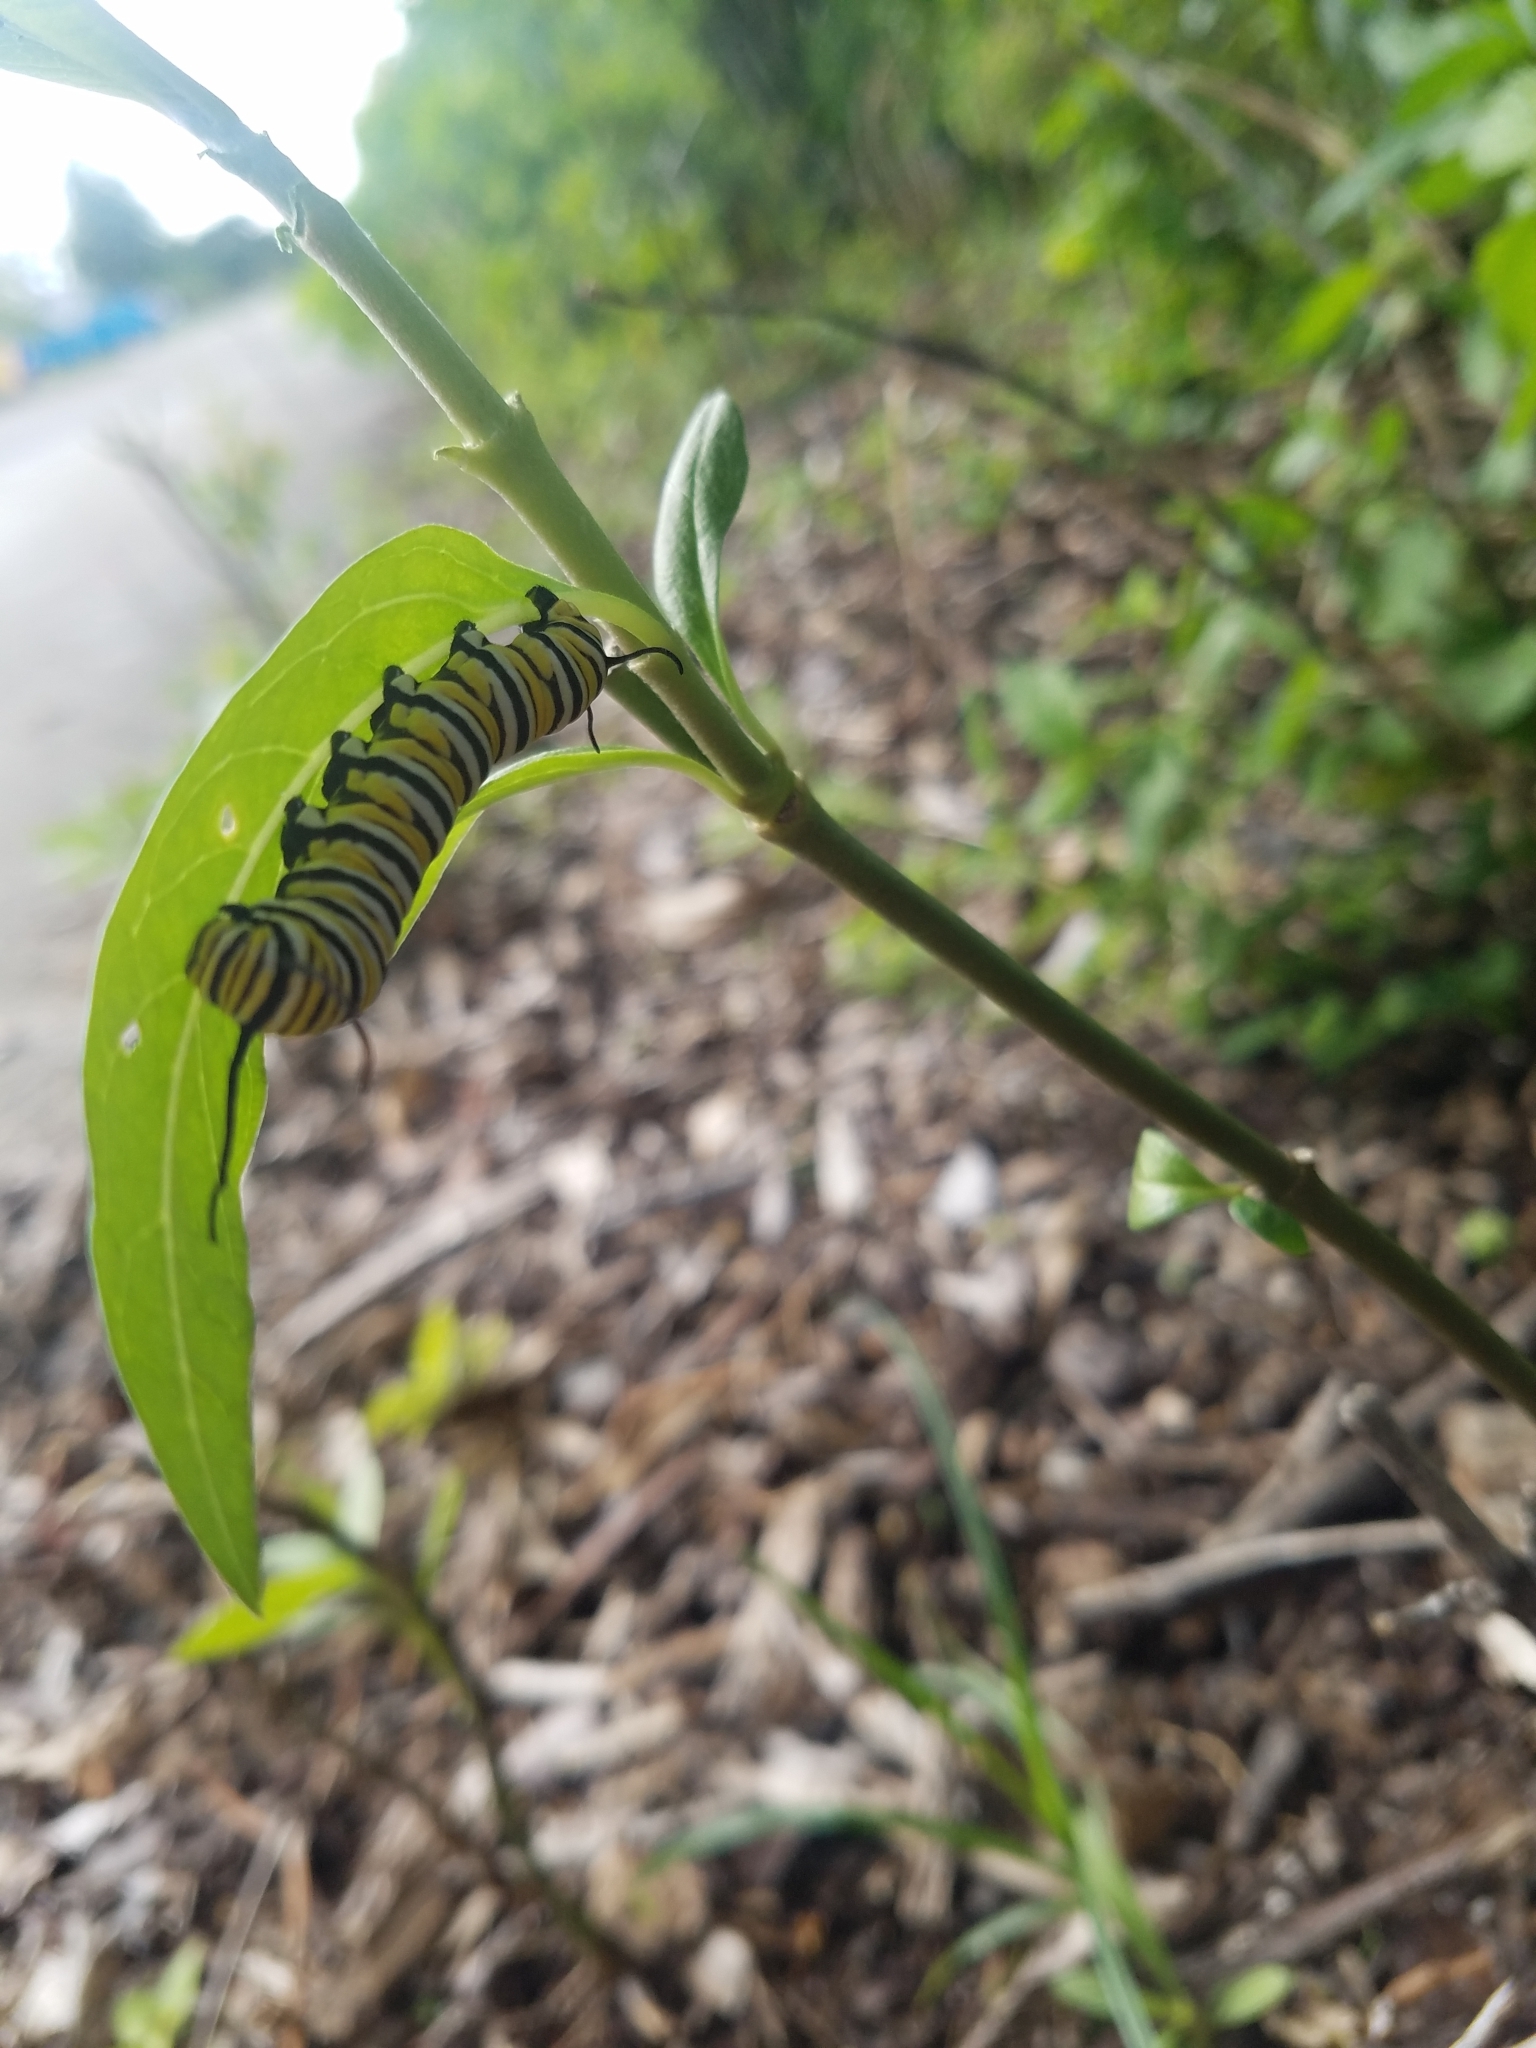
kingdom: Animalia
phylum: Arthropoda
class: Insecta
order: Lepidoptera
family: Nymphalidae
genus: Danaus
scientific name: Danaus plexippus
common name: Monarch
